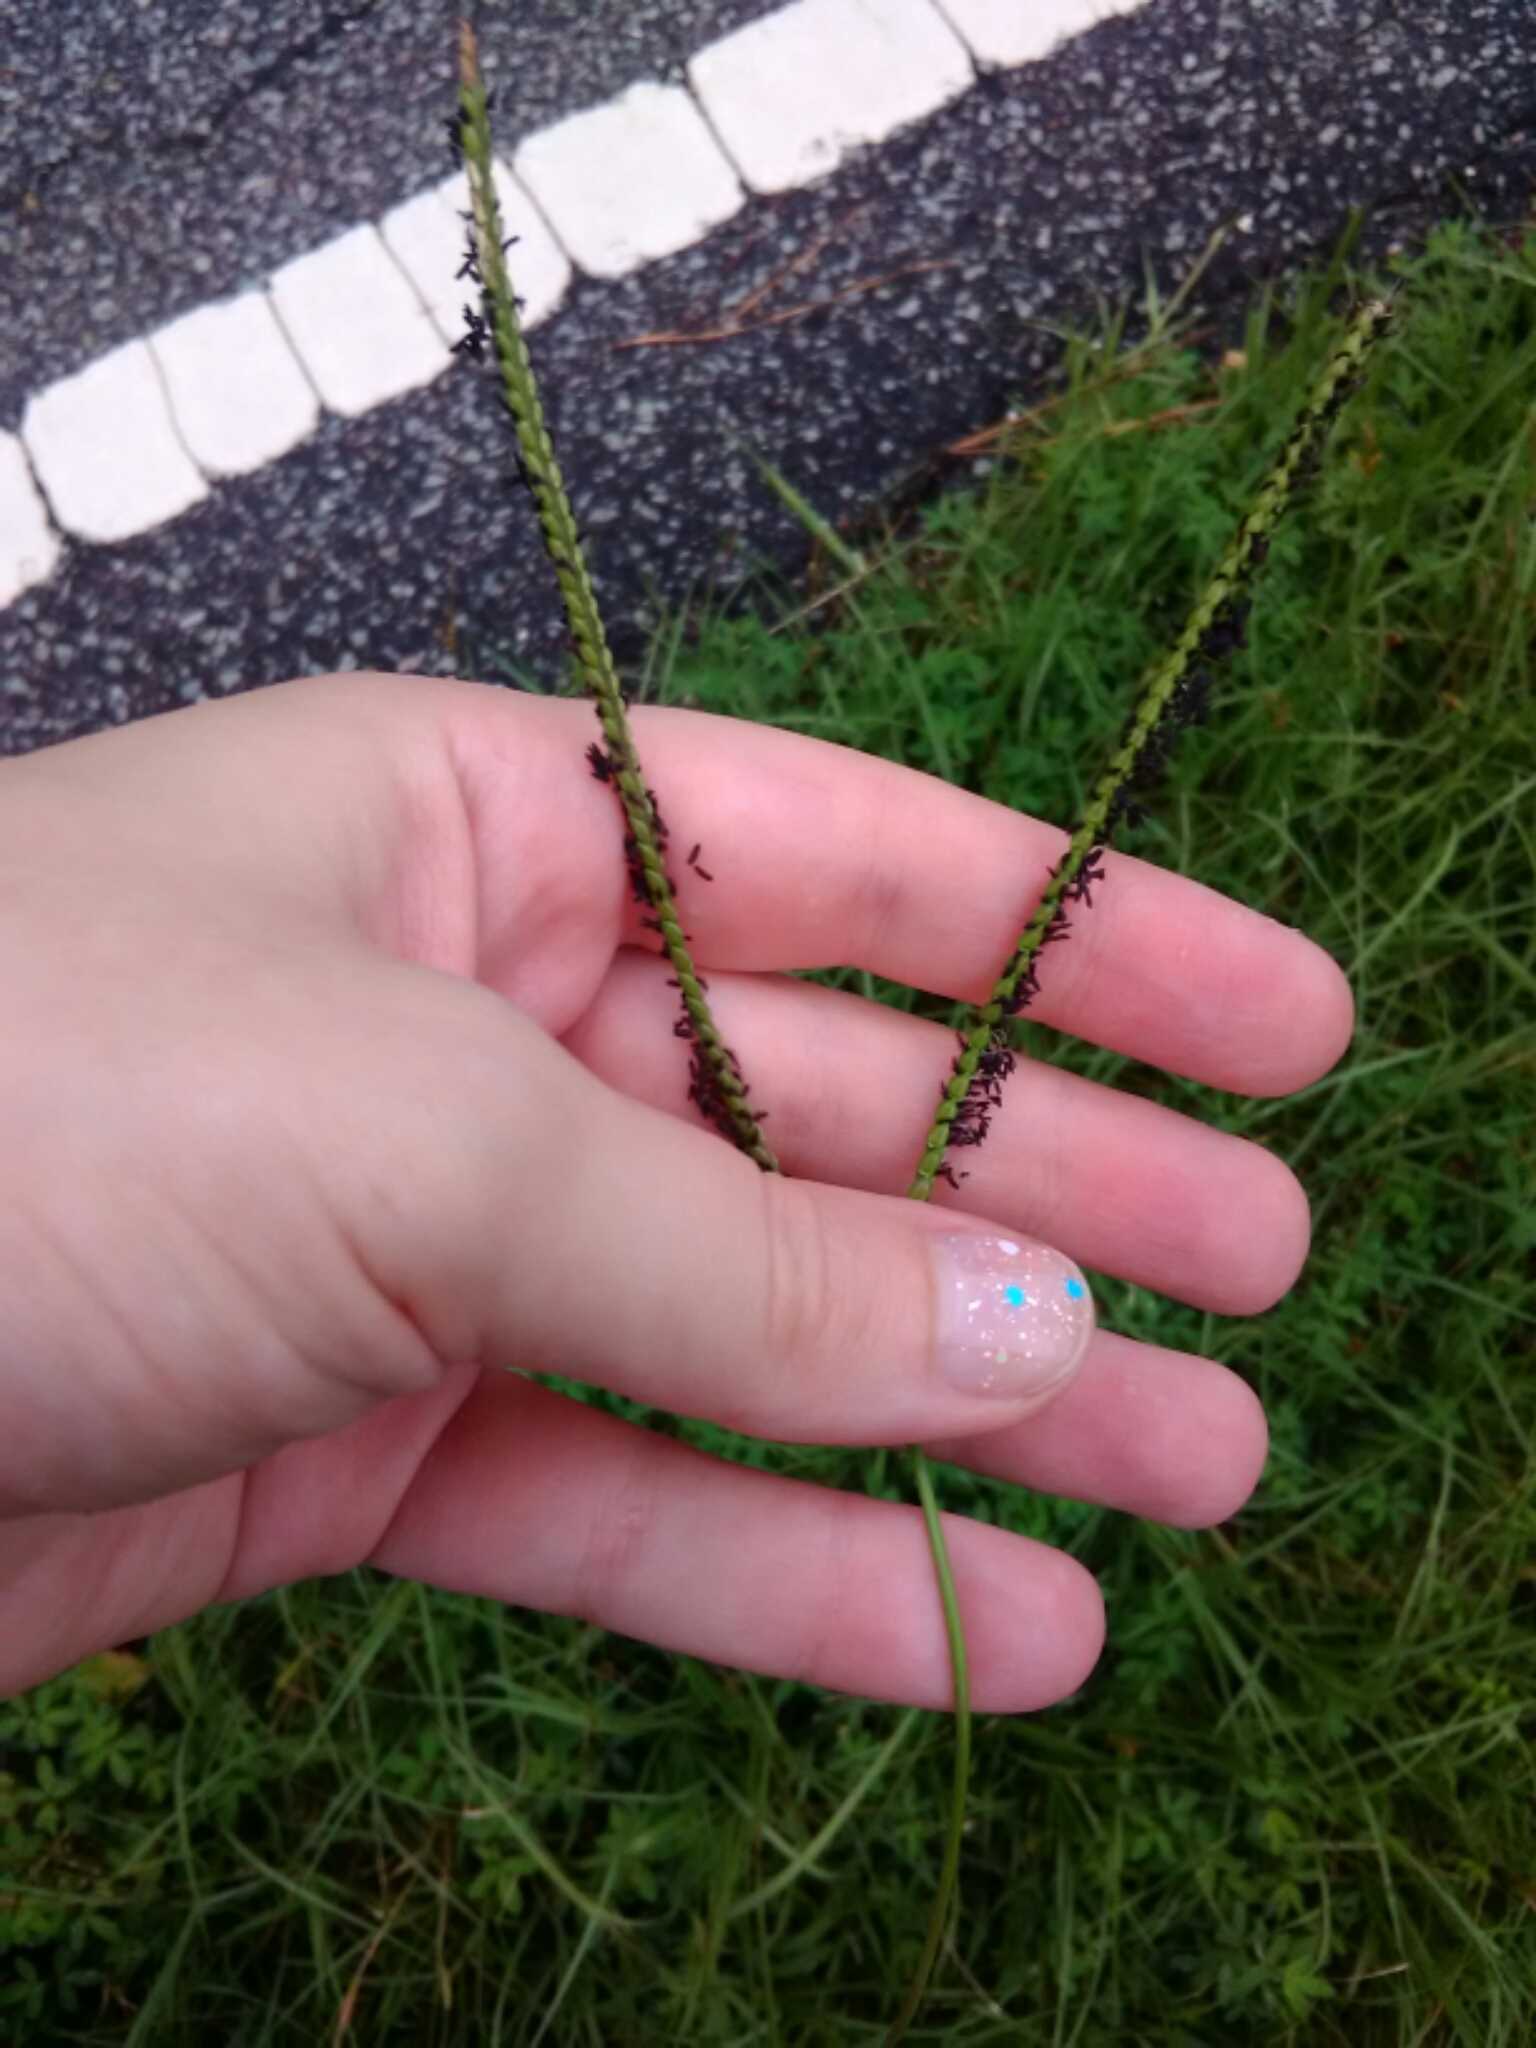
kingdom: Plantae
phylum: Tracheophyta
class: Liliopsida
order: Poales
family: Poaceae
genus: Paspalum
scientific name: Paspalum notatum
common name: Bahiagrass
